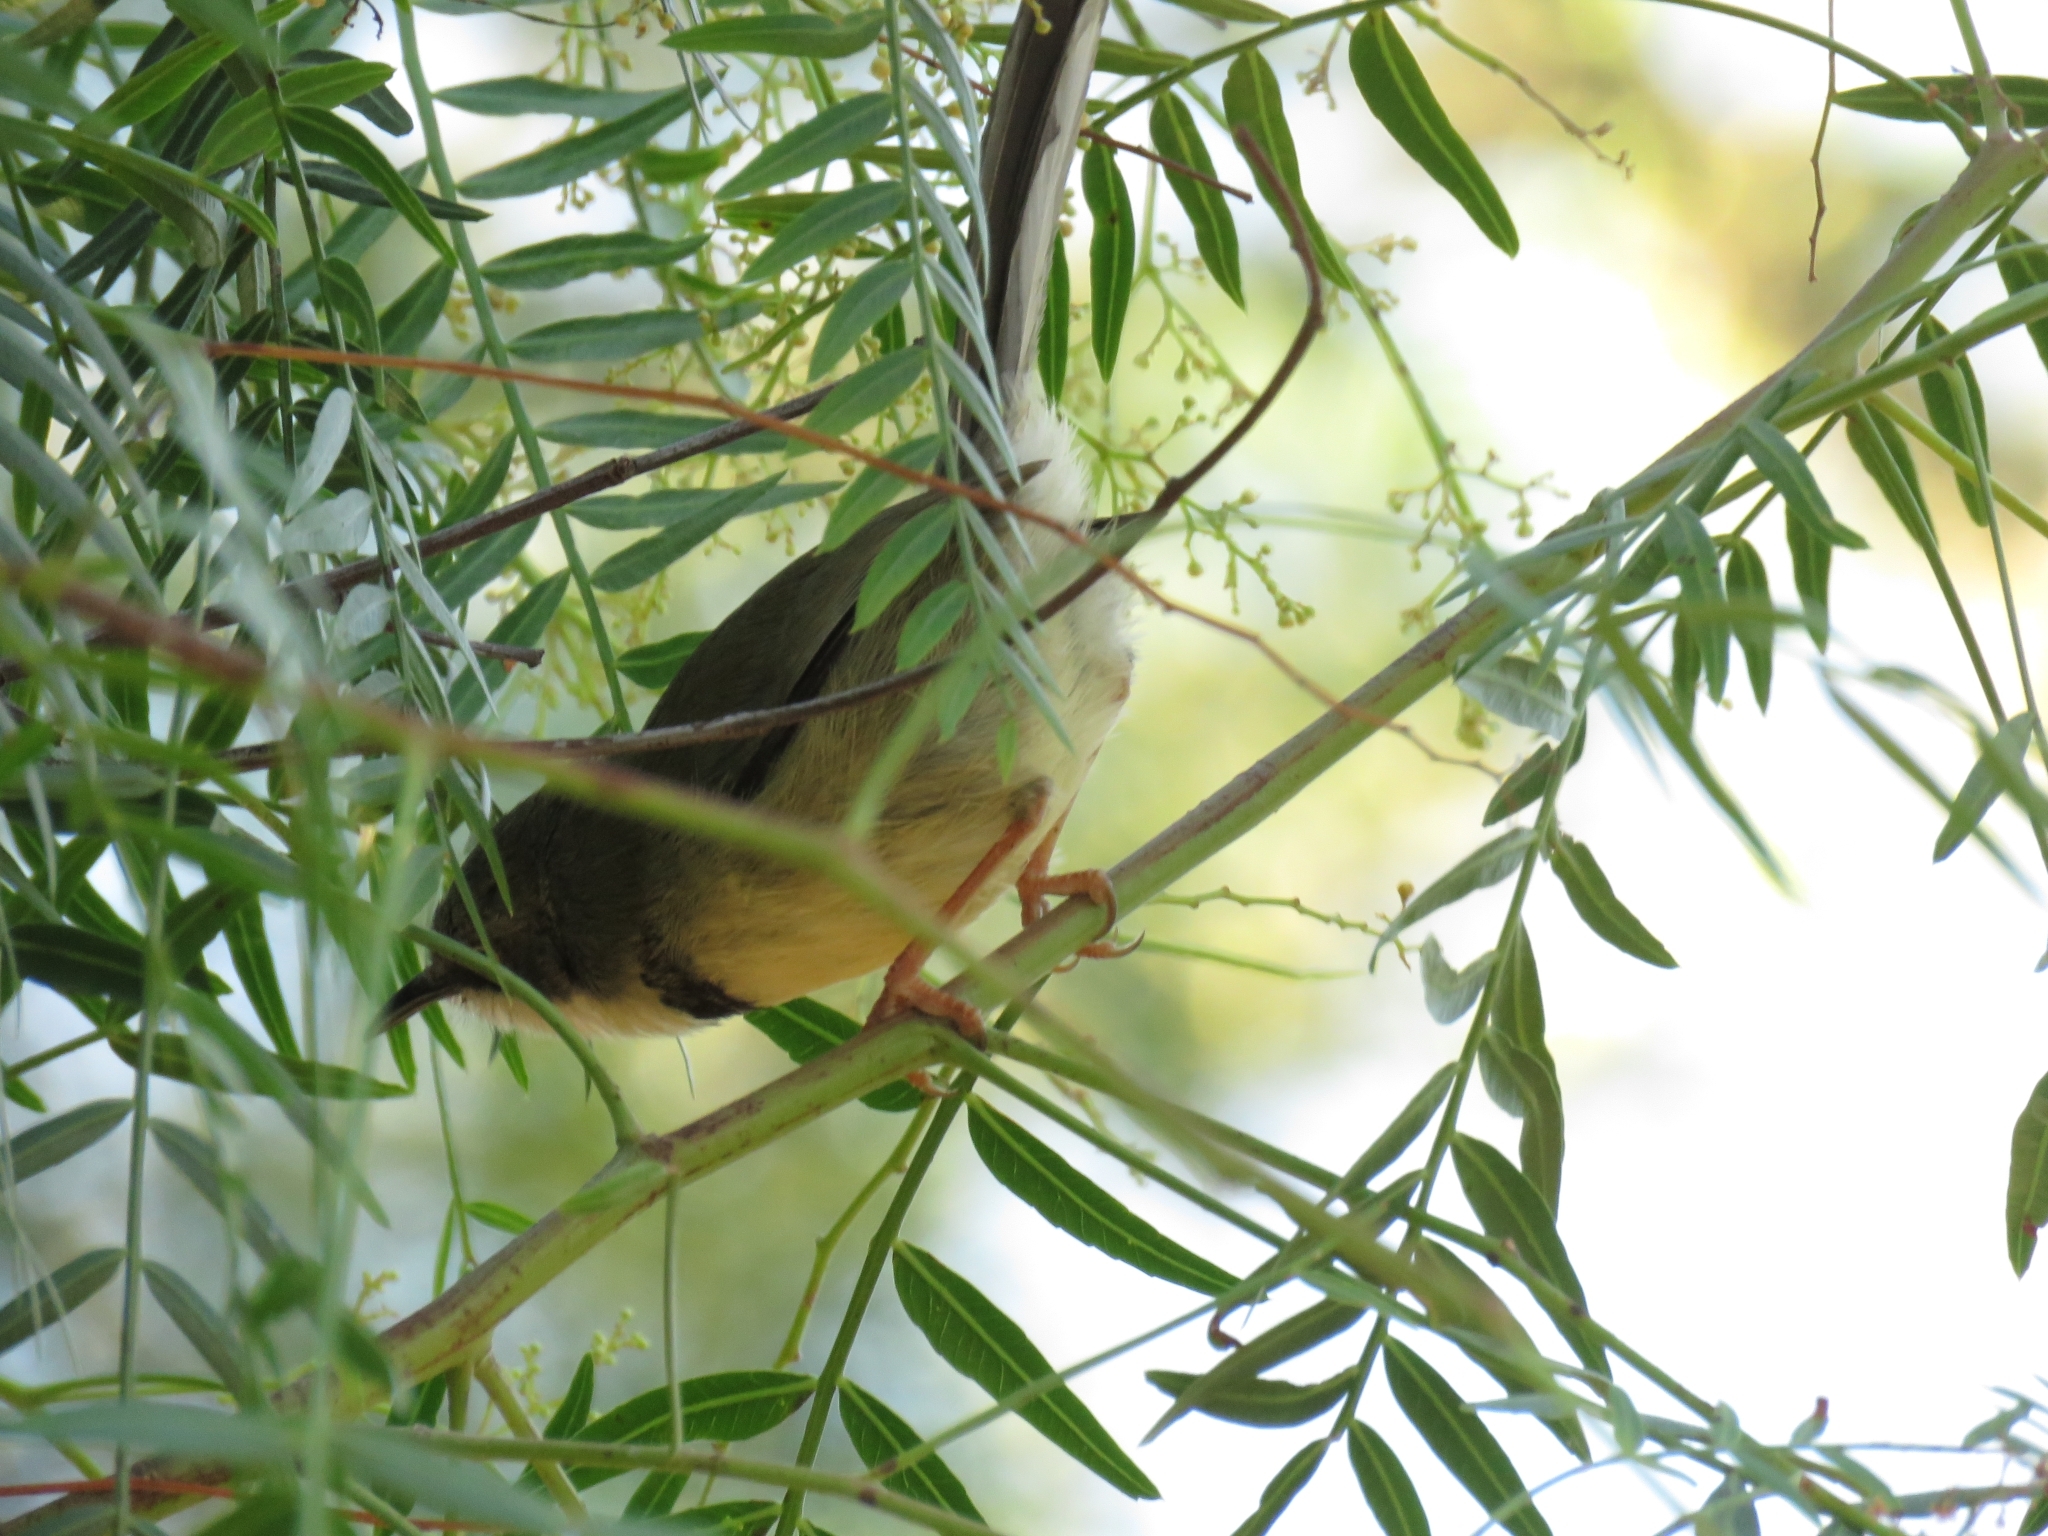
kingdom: Animalia
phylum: Chordata
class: Aves
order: Passeriformes
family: Cisticolidae
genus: Apalis
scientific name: Apalis thoracica
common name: Bar-throated apalis
